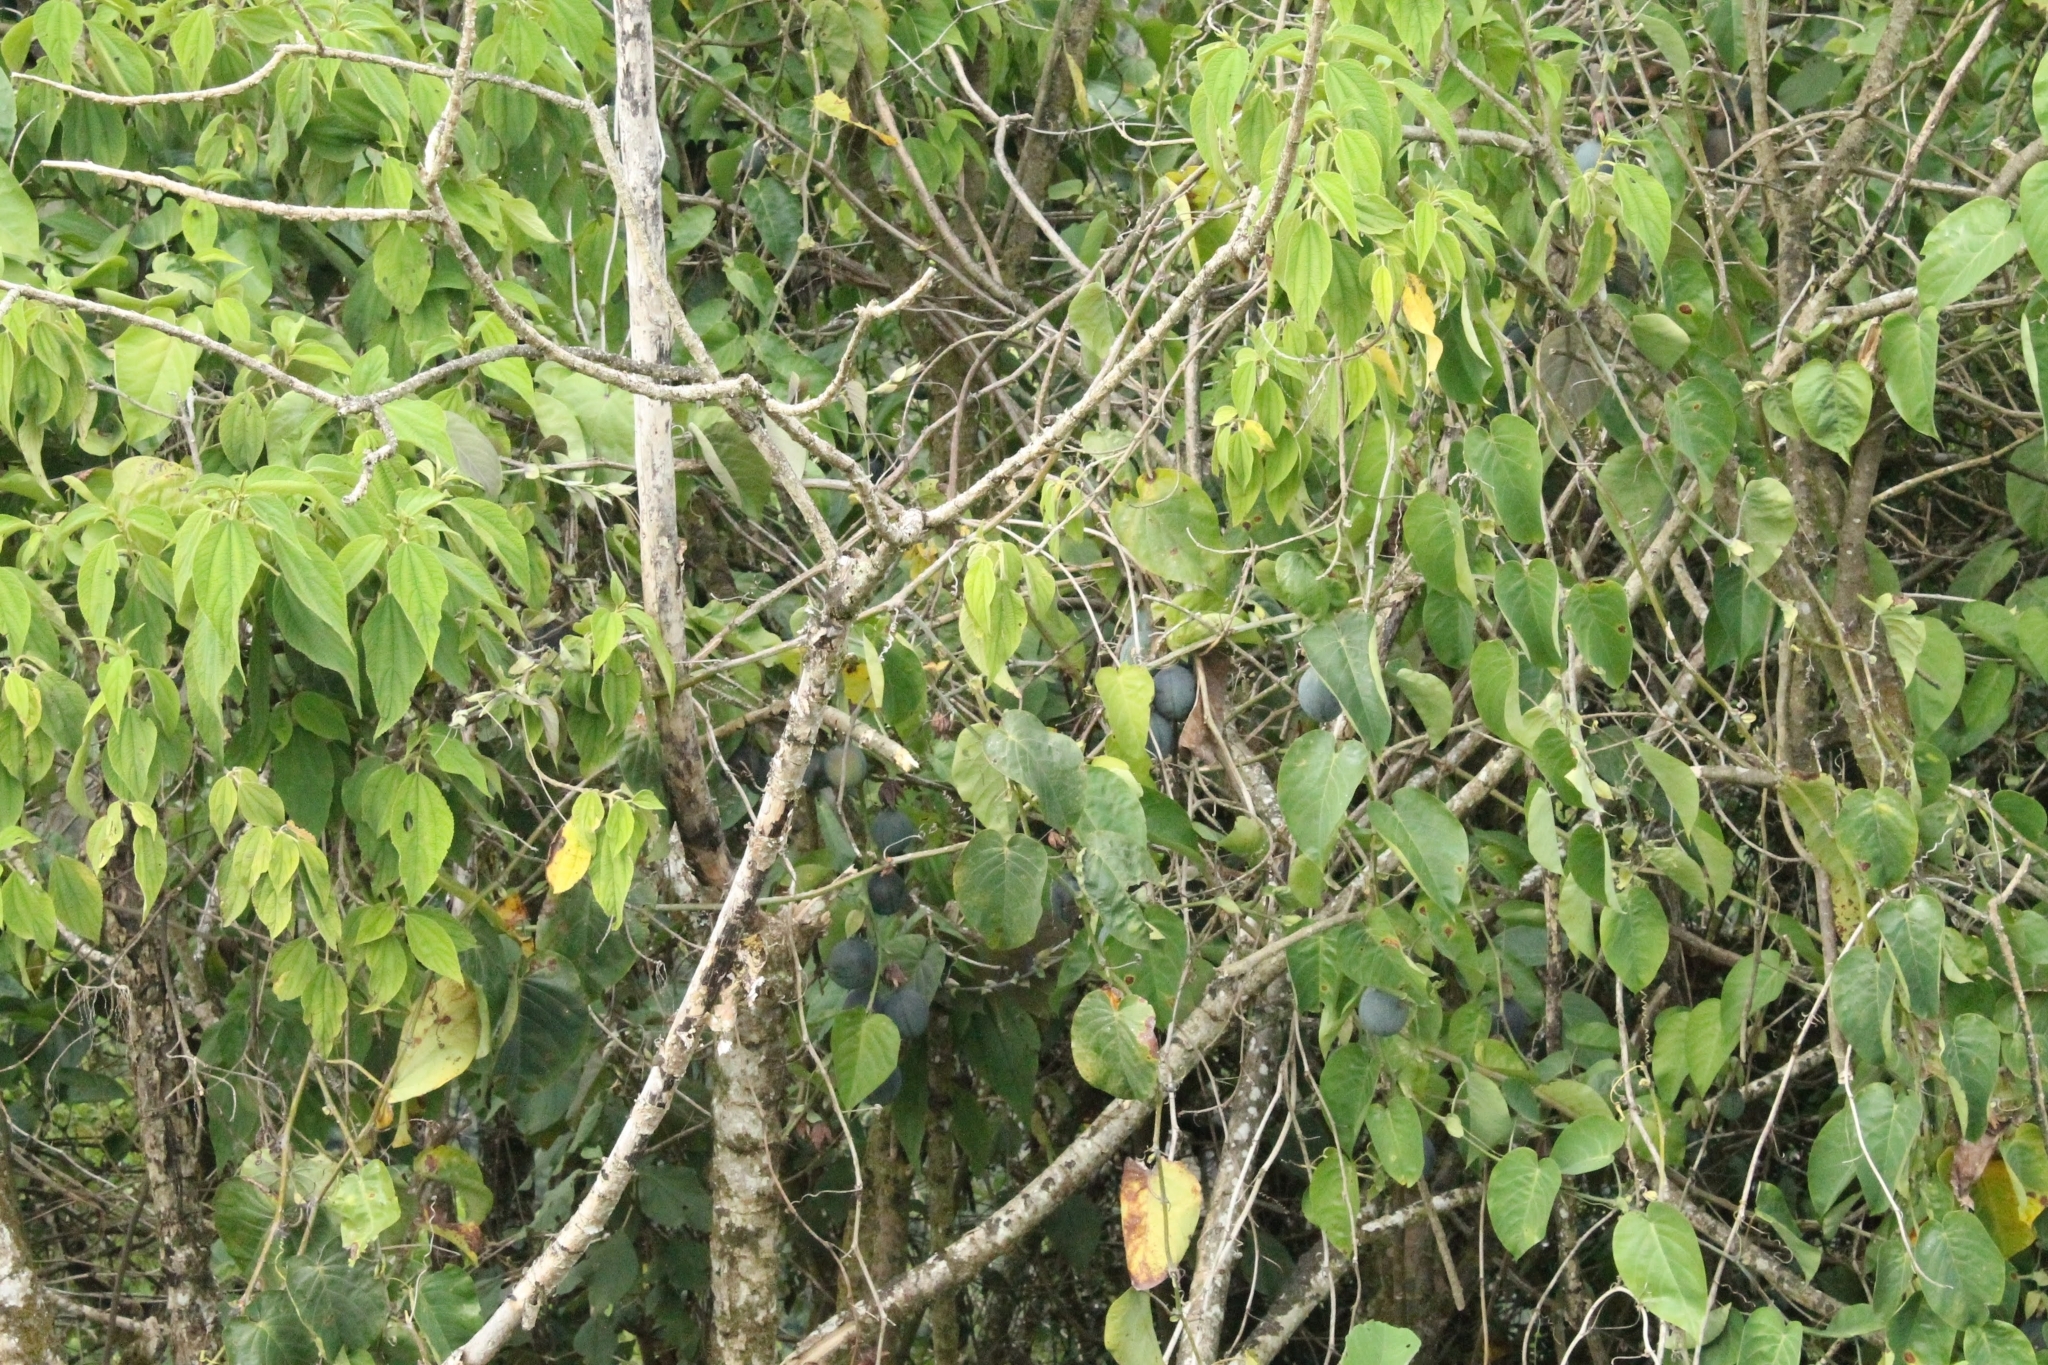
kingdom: Plantae
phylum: Tracheophyta
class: Magnoliopsida
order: Malpighiales
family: Passifloraceae
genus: Passiflora
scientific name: Passiflora ligularis
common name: Sweet granadilla
